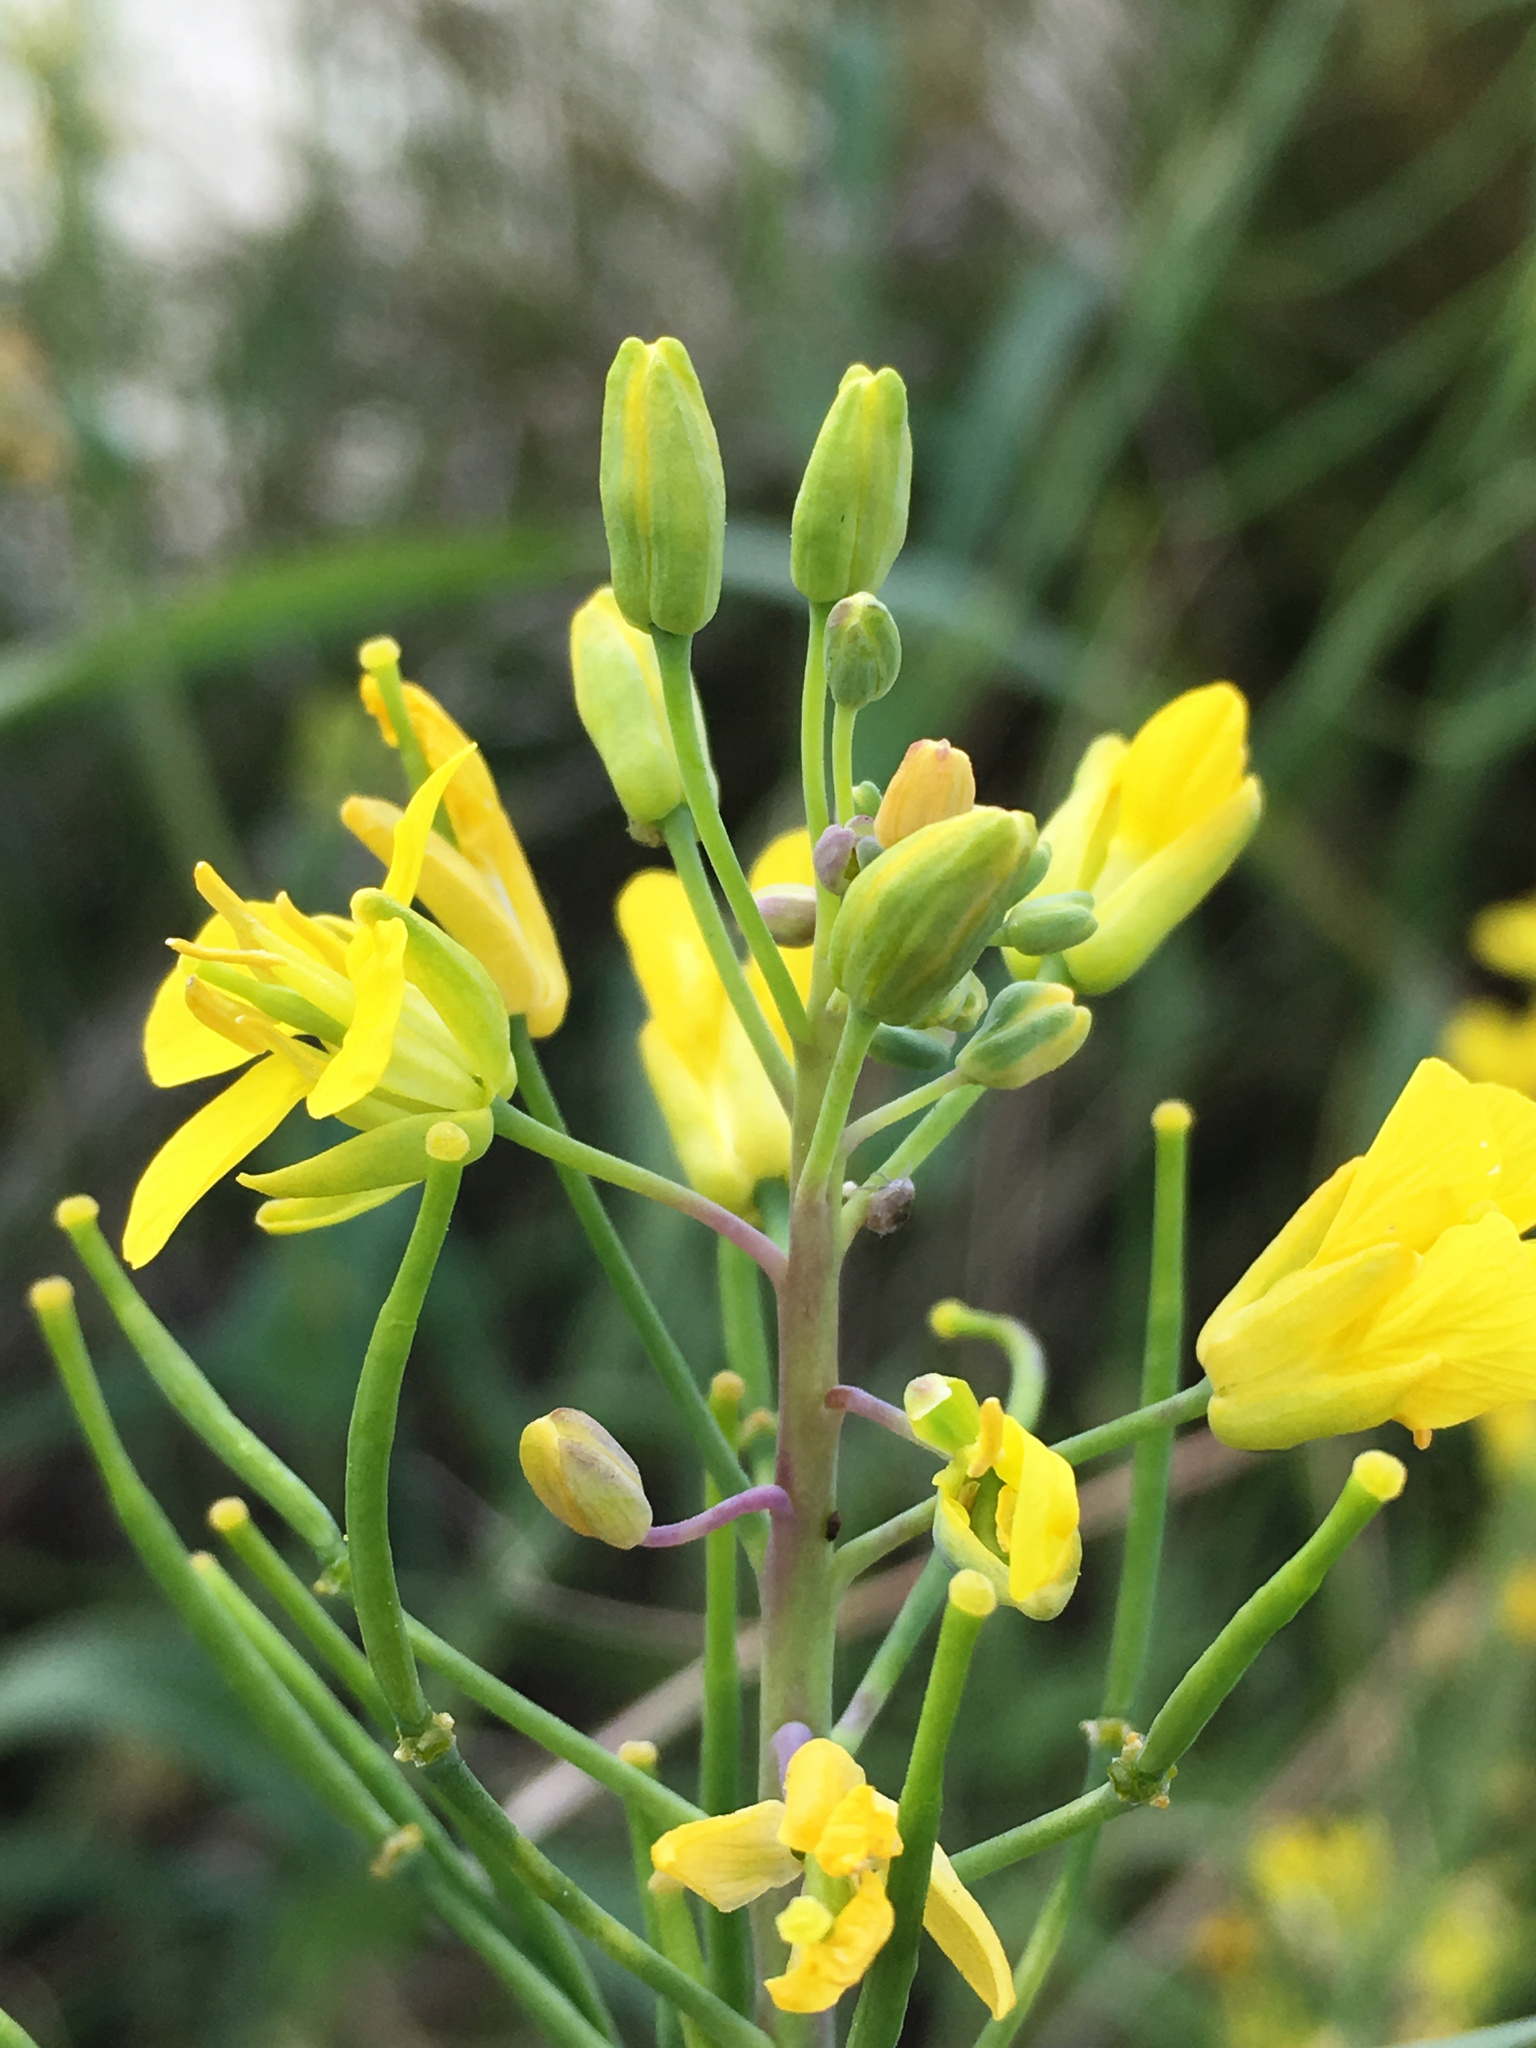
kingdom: Plantae
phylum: Tracheophyta
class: Magnoliopsida
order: Brassicales
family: Brassicaceae
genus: Brassica
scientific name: Brassica oleracea
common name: Cabbage
